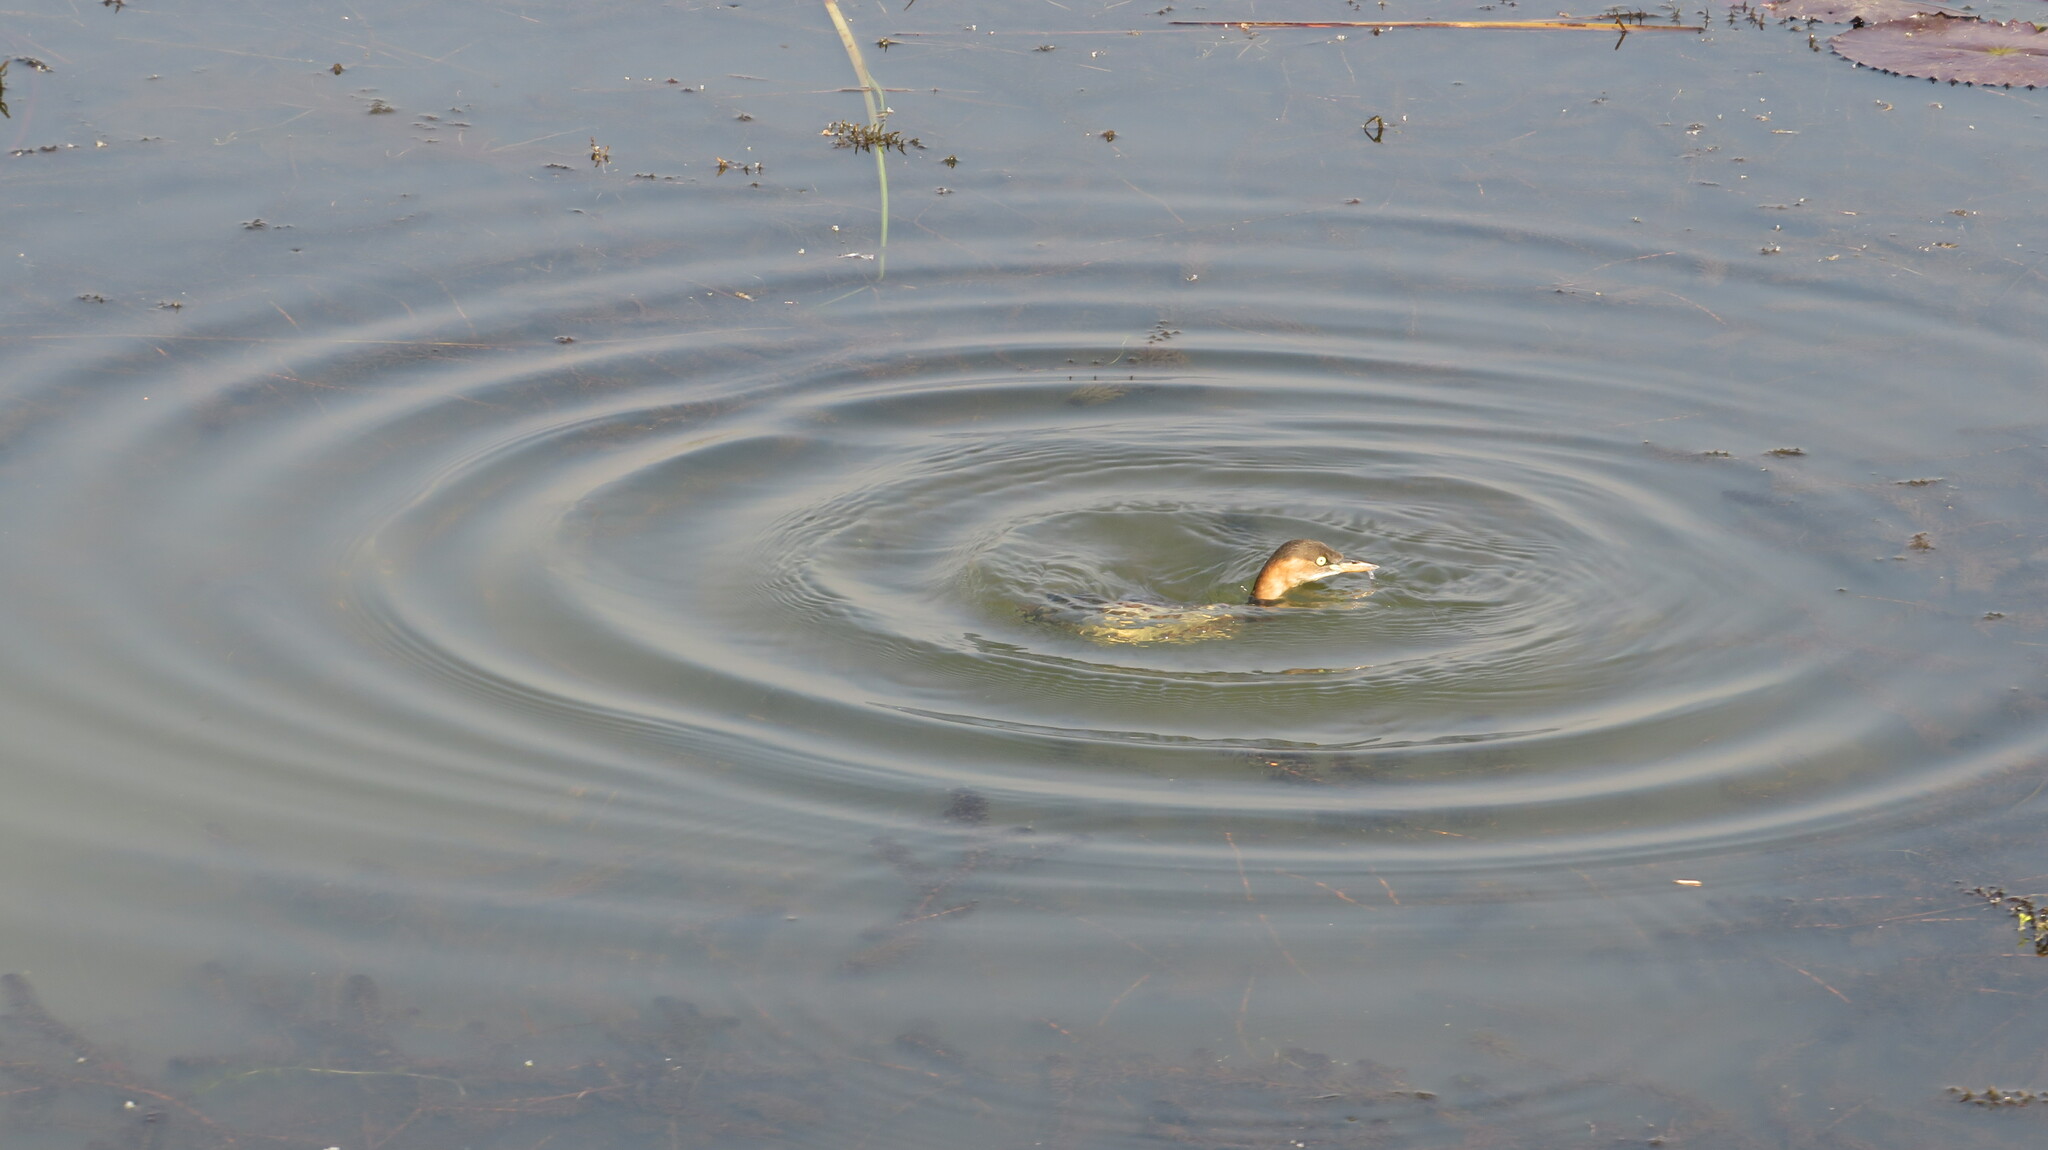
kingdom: Animalia
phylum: Chordata
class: Aves
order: Podicipediformes
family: Podicipedidae
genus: Tachybaptus
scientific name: Tachybaptus ruficollis
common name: Little grebe
